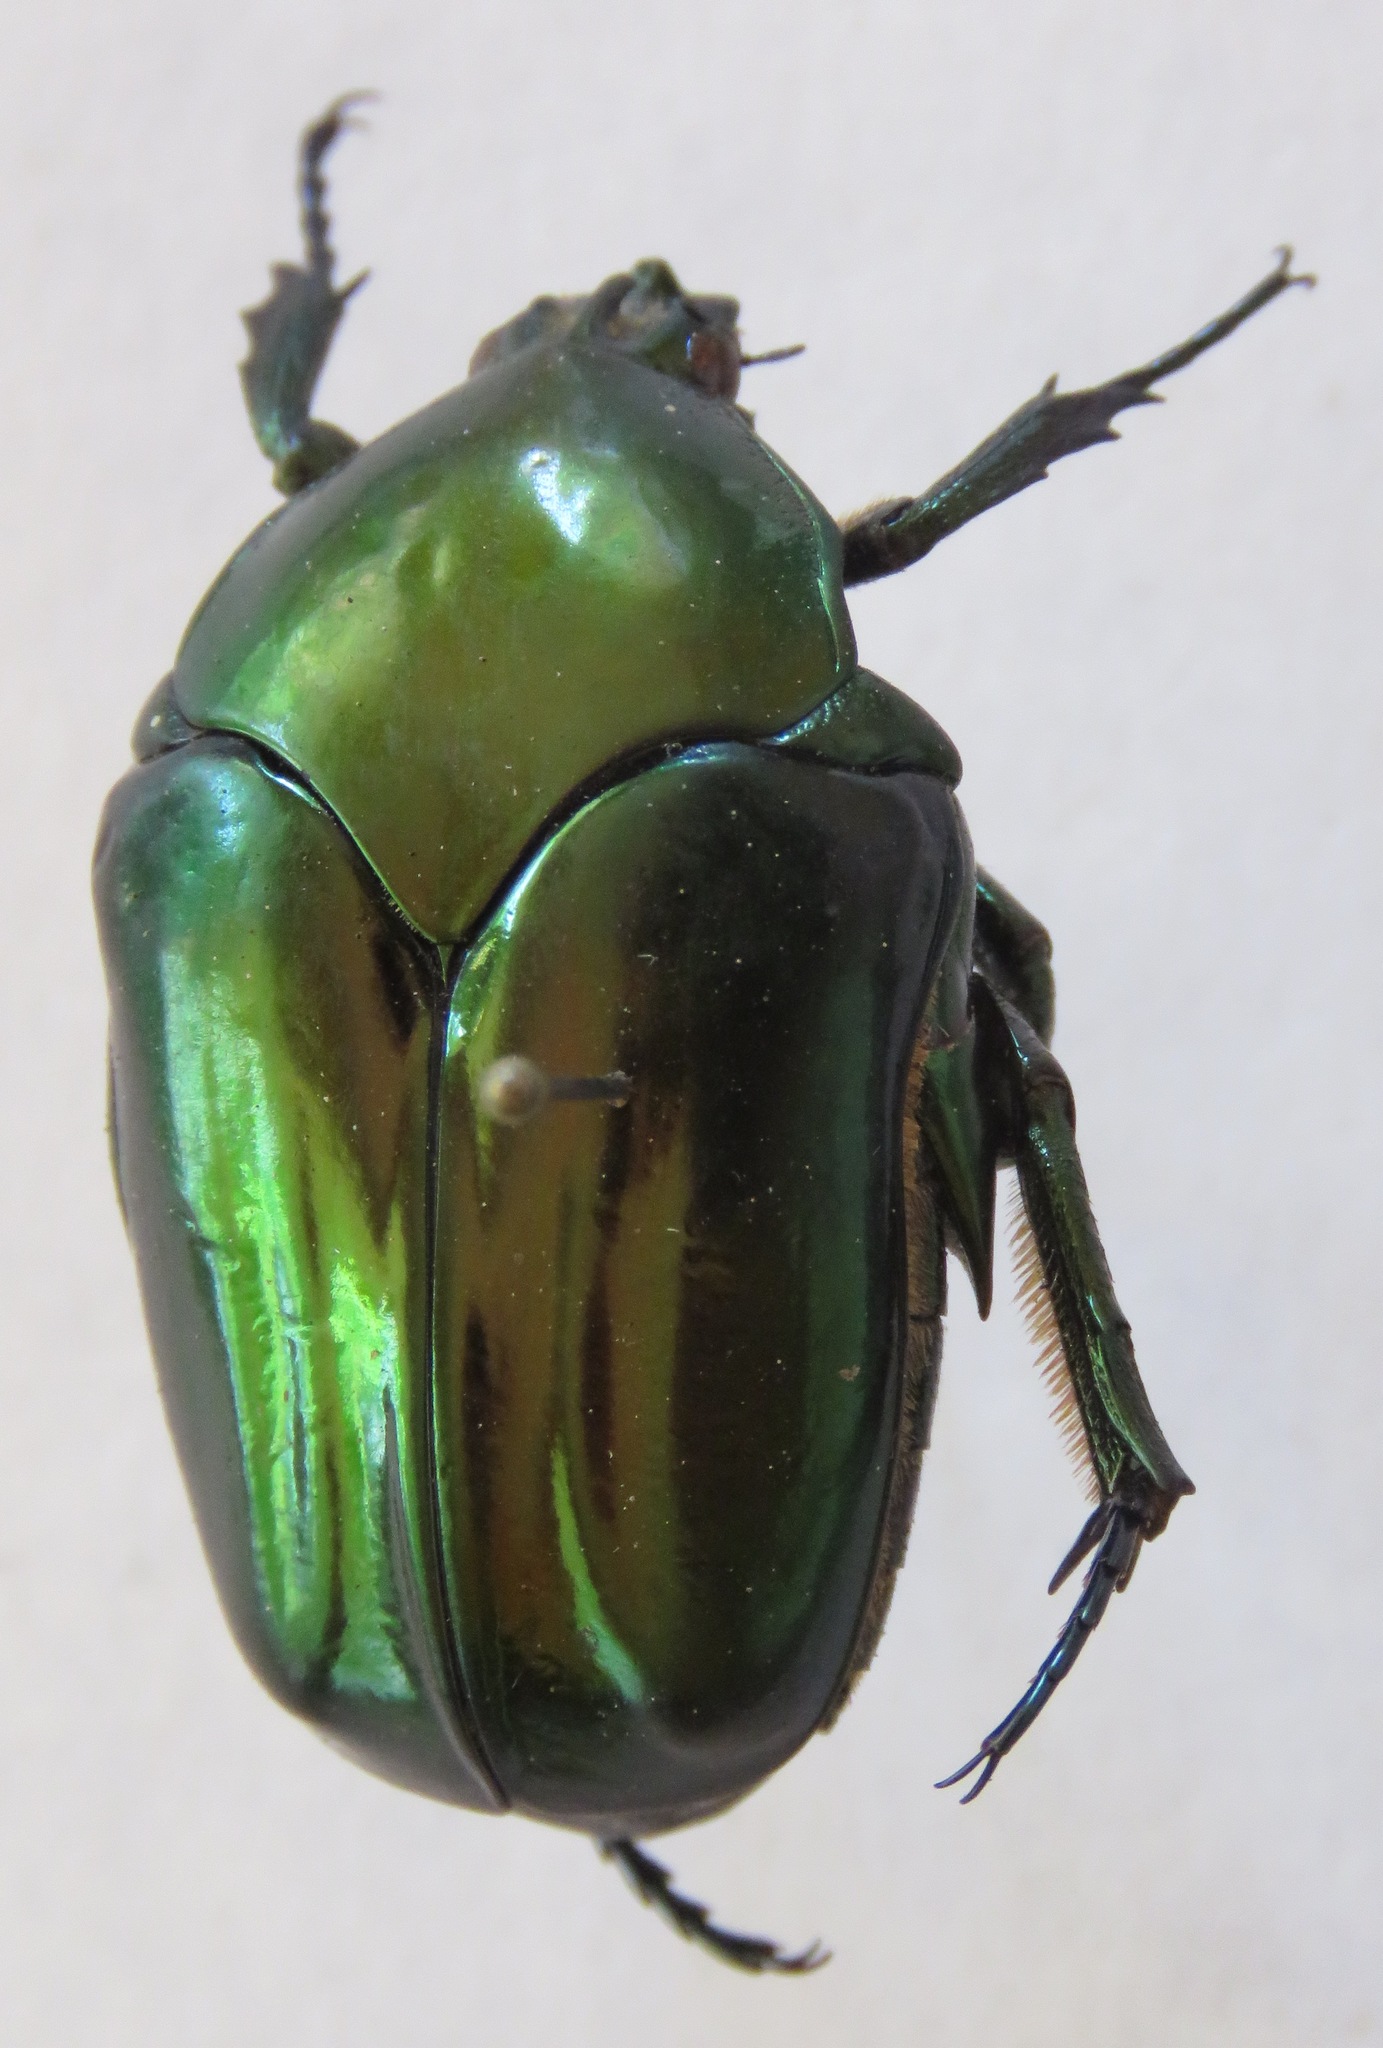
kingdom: Animalia
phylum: Arthropoda
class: Insecta
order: Coleoptera
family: Scarabaeidae
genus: Cotinis
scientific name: Cotinis mutabilis
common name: Figeater beetle
